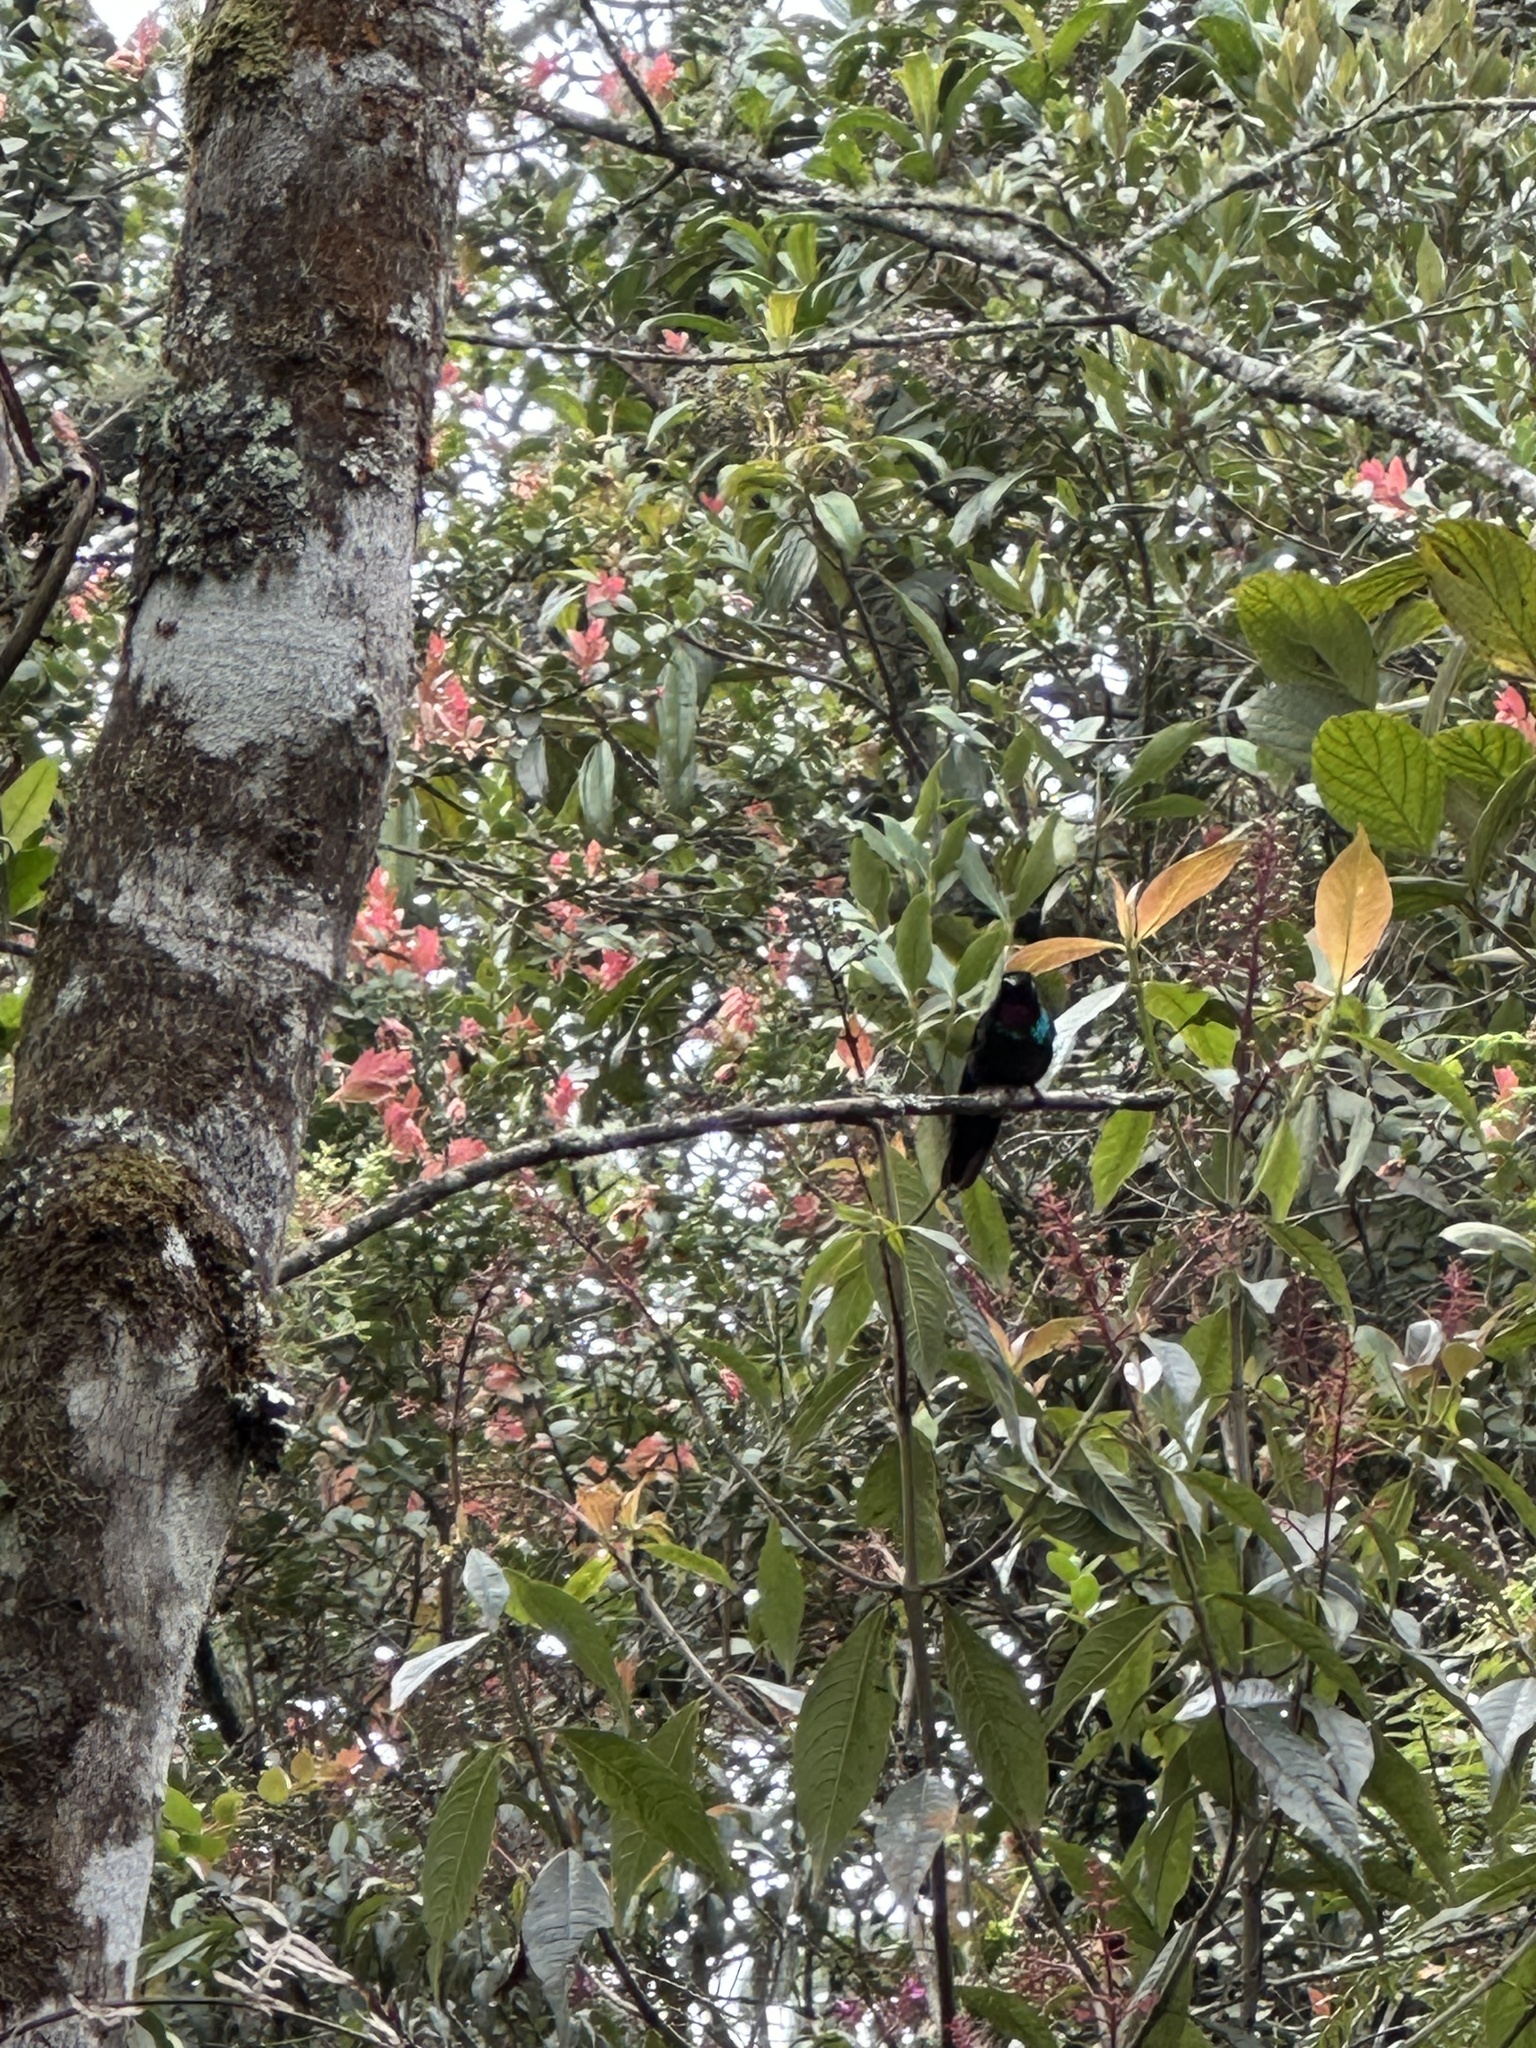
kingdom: Animalia
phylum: Chordata
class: Aves
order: Apodiformes
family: Trochilidae
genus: Heliangelus
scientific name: Heliangelus exortis
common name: Tourmaline sunangel
